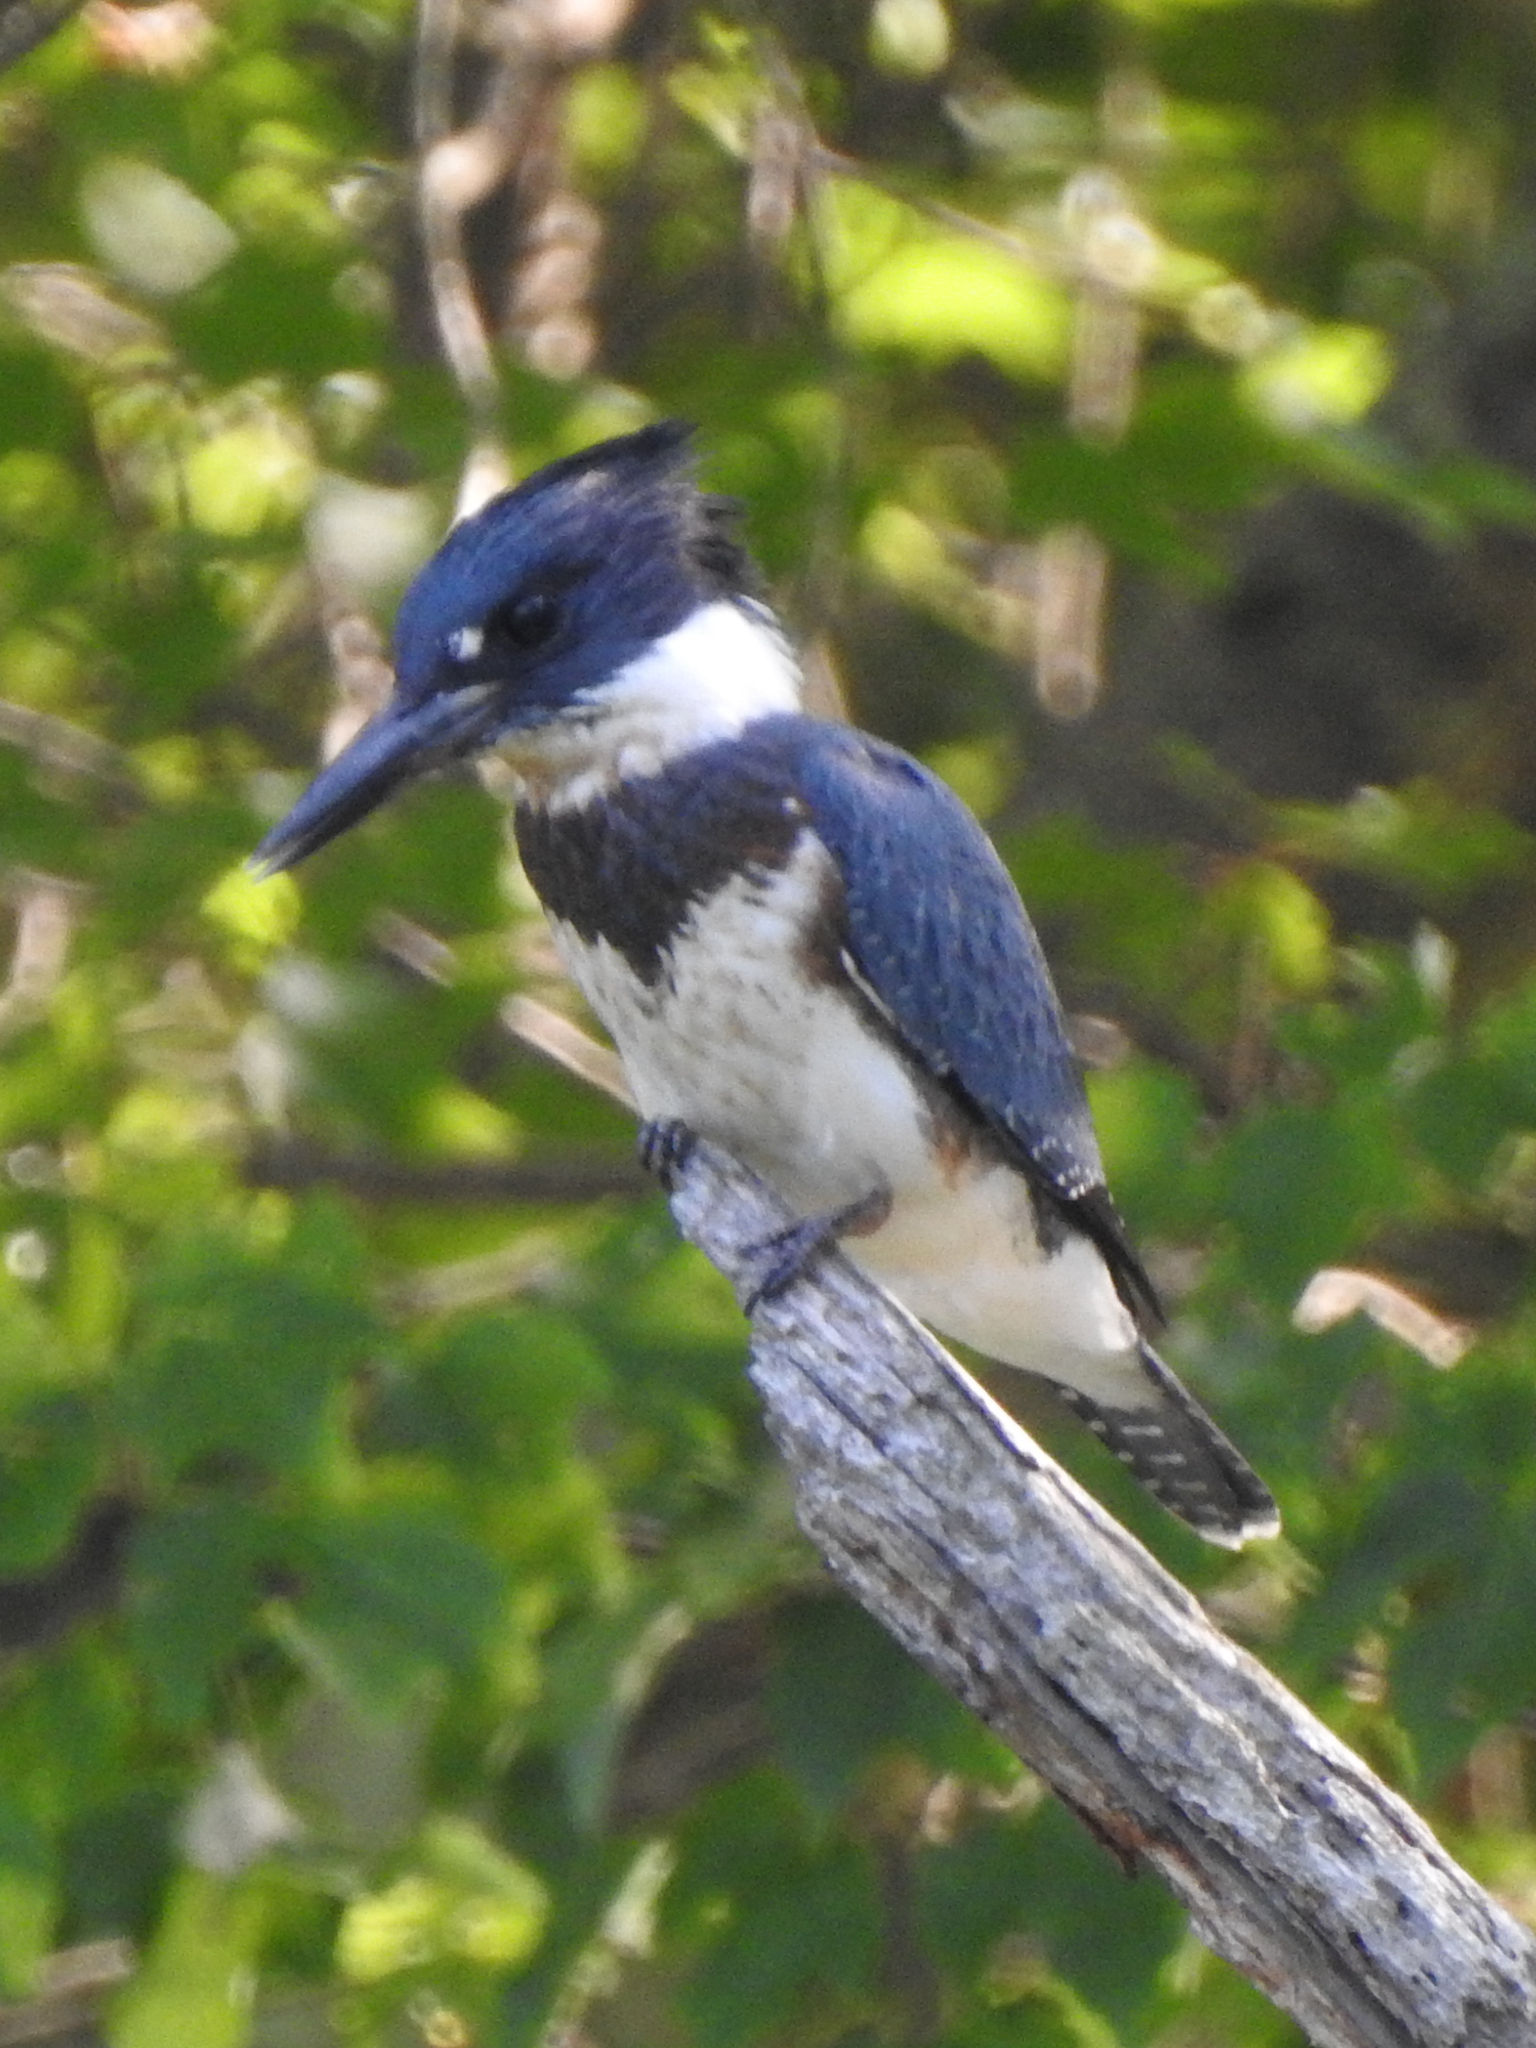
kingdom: Animalia
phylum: Chordata
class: Aves
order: Coraciiformes
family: Alcedinidae
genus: Megaceryle
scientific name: Megaceryle alcyon
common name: Belted kingfisher
